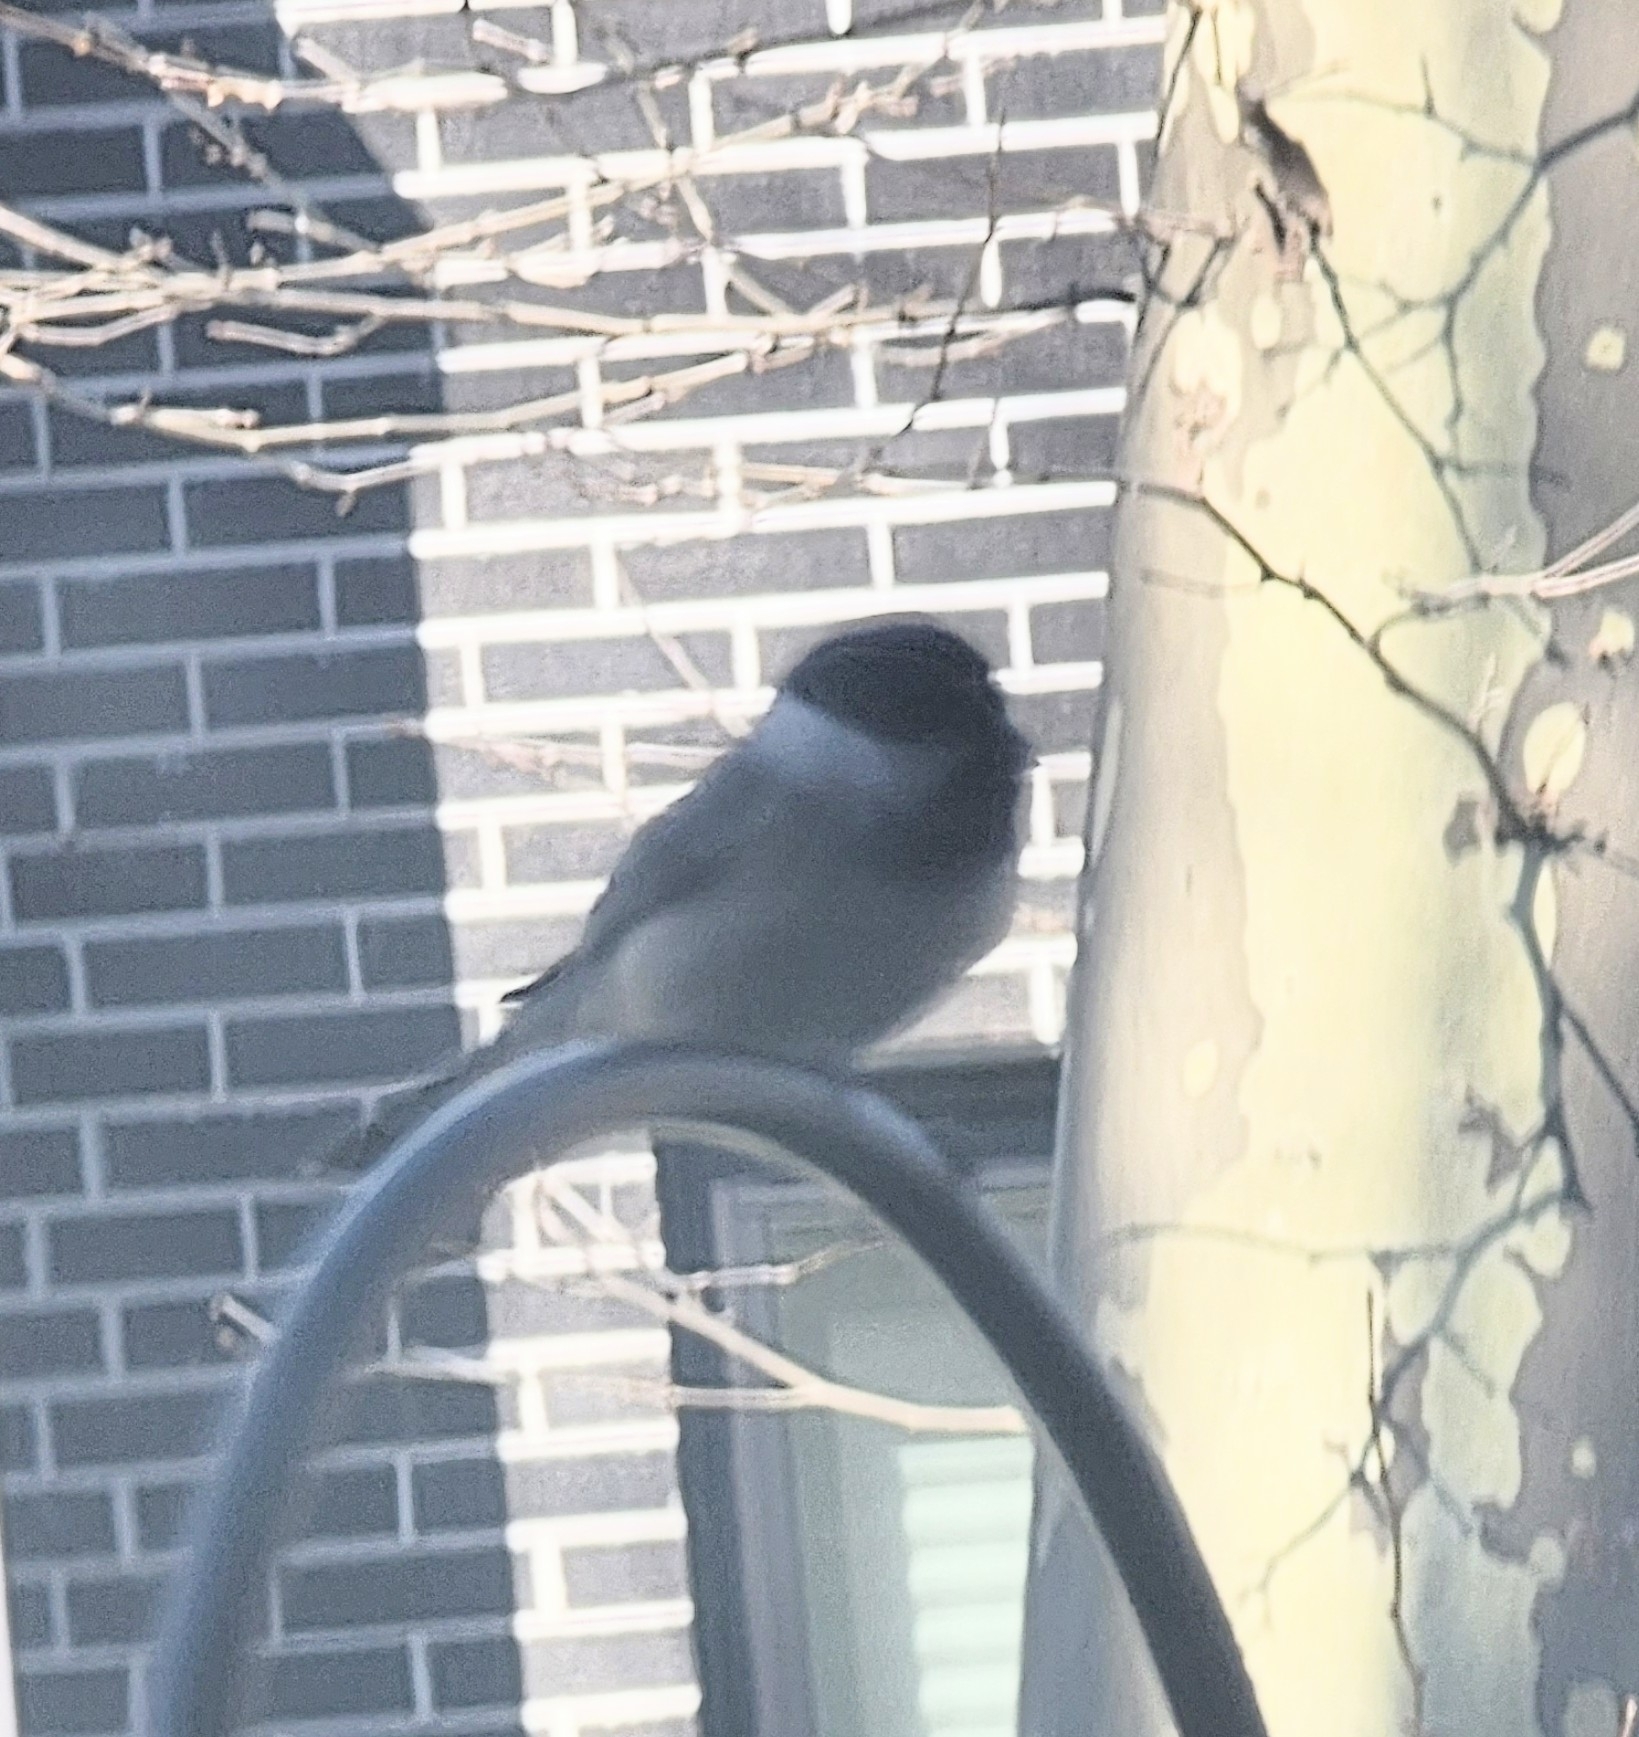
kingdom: Animalia
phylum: Chordata
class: Aves
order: Passeriformes
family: Paridae
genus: Poecile
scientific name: Poecile carolinensis
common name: Carolina chickadee
